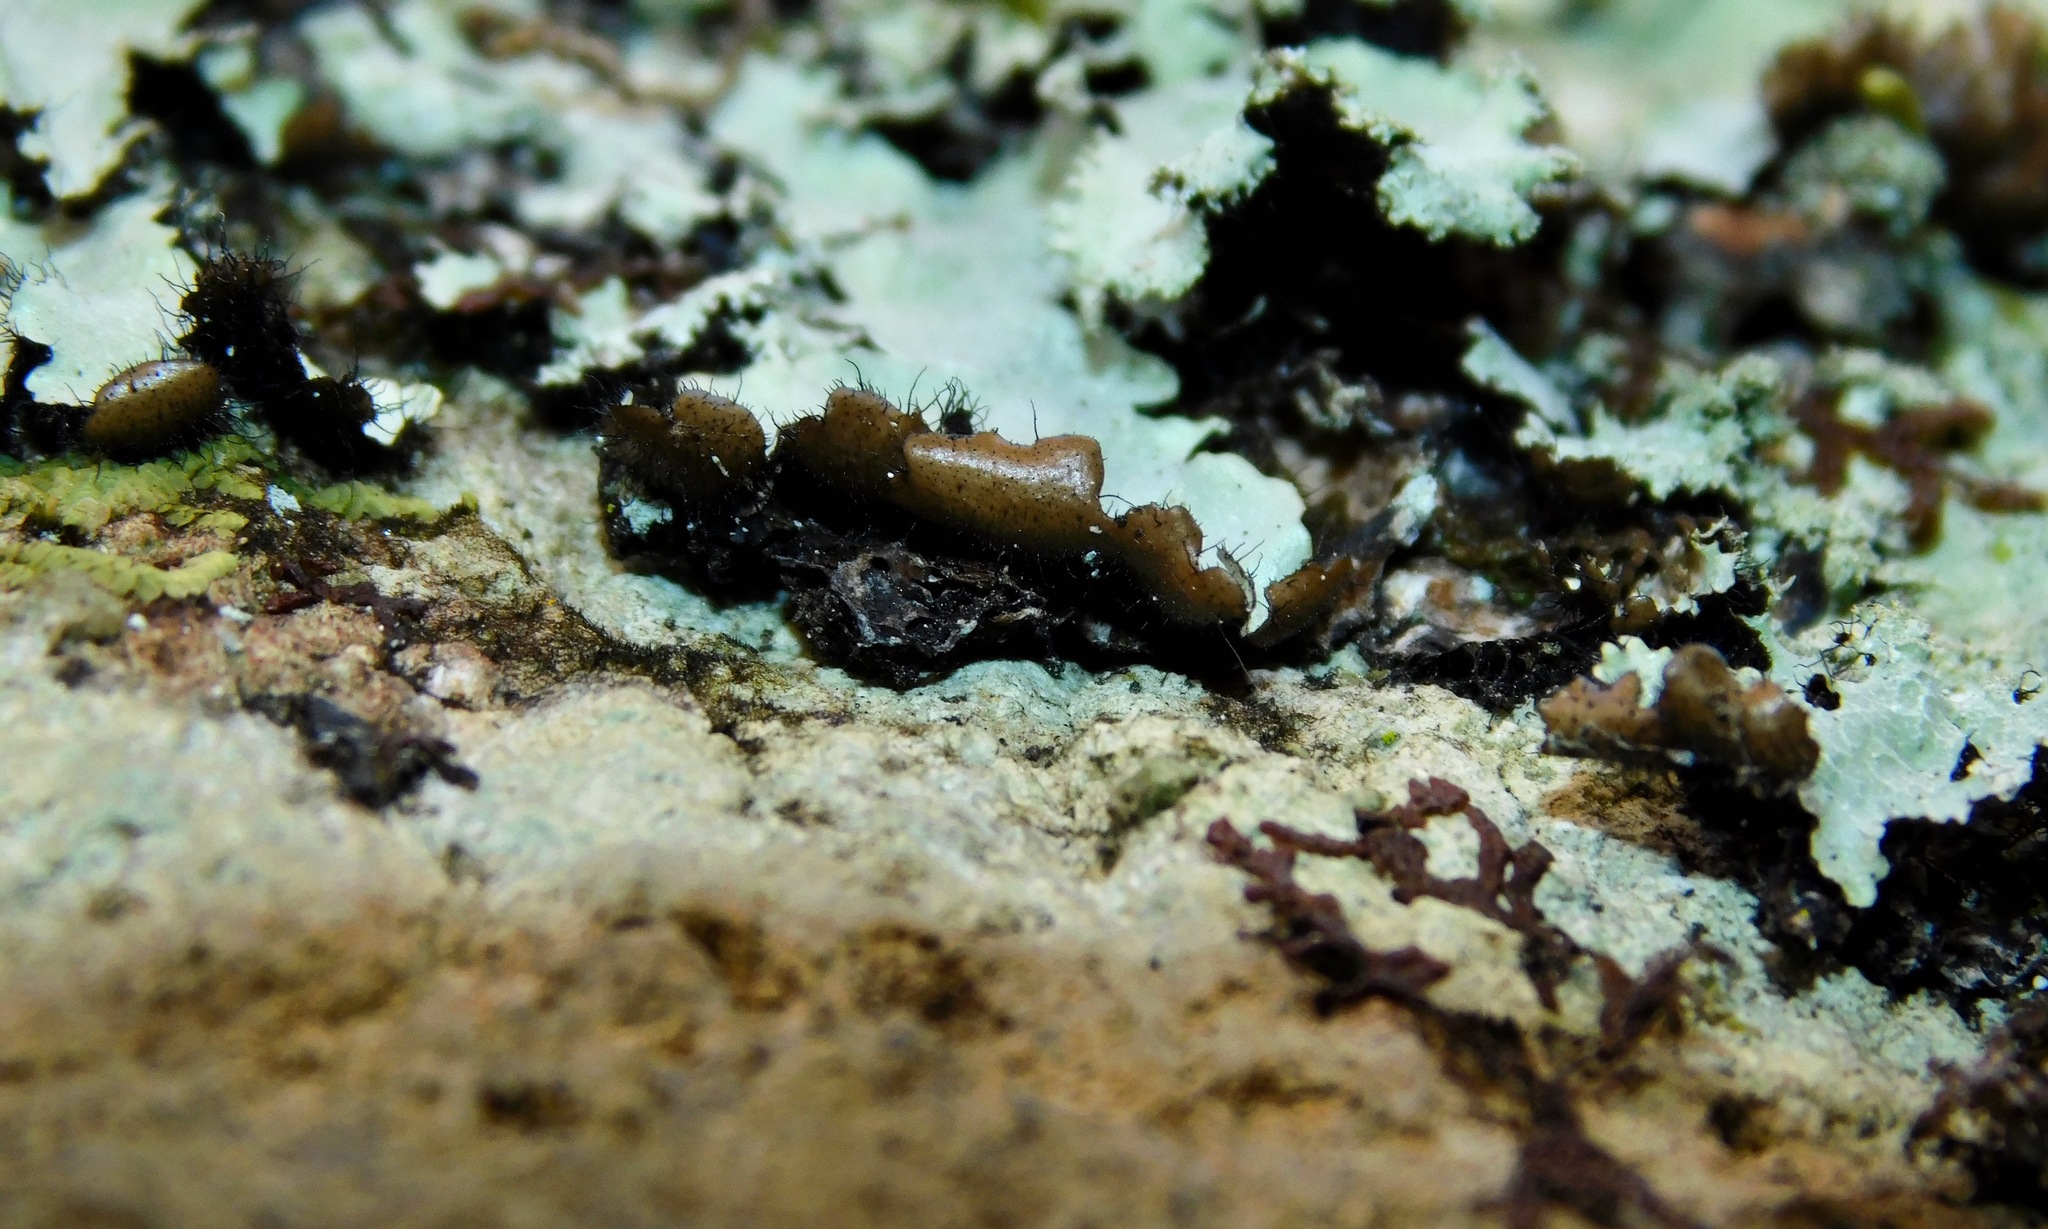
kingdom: Fungi
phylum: Ascomycota
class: Lecanoromycetes
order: Lecanorales
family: Parmeliaceae
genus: Parmotrema
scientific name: Parmotrema crinitum
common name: Salted ruffle lichen
